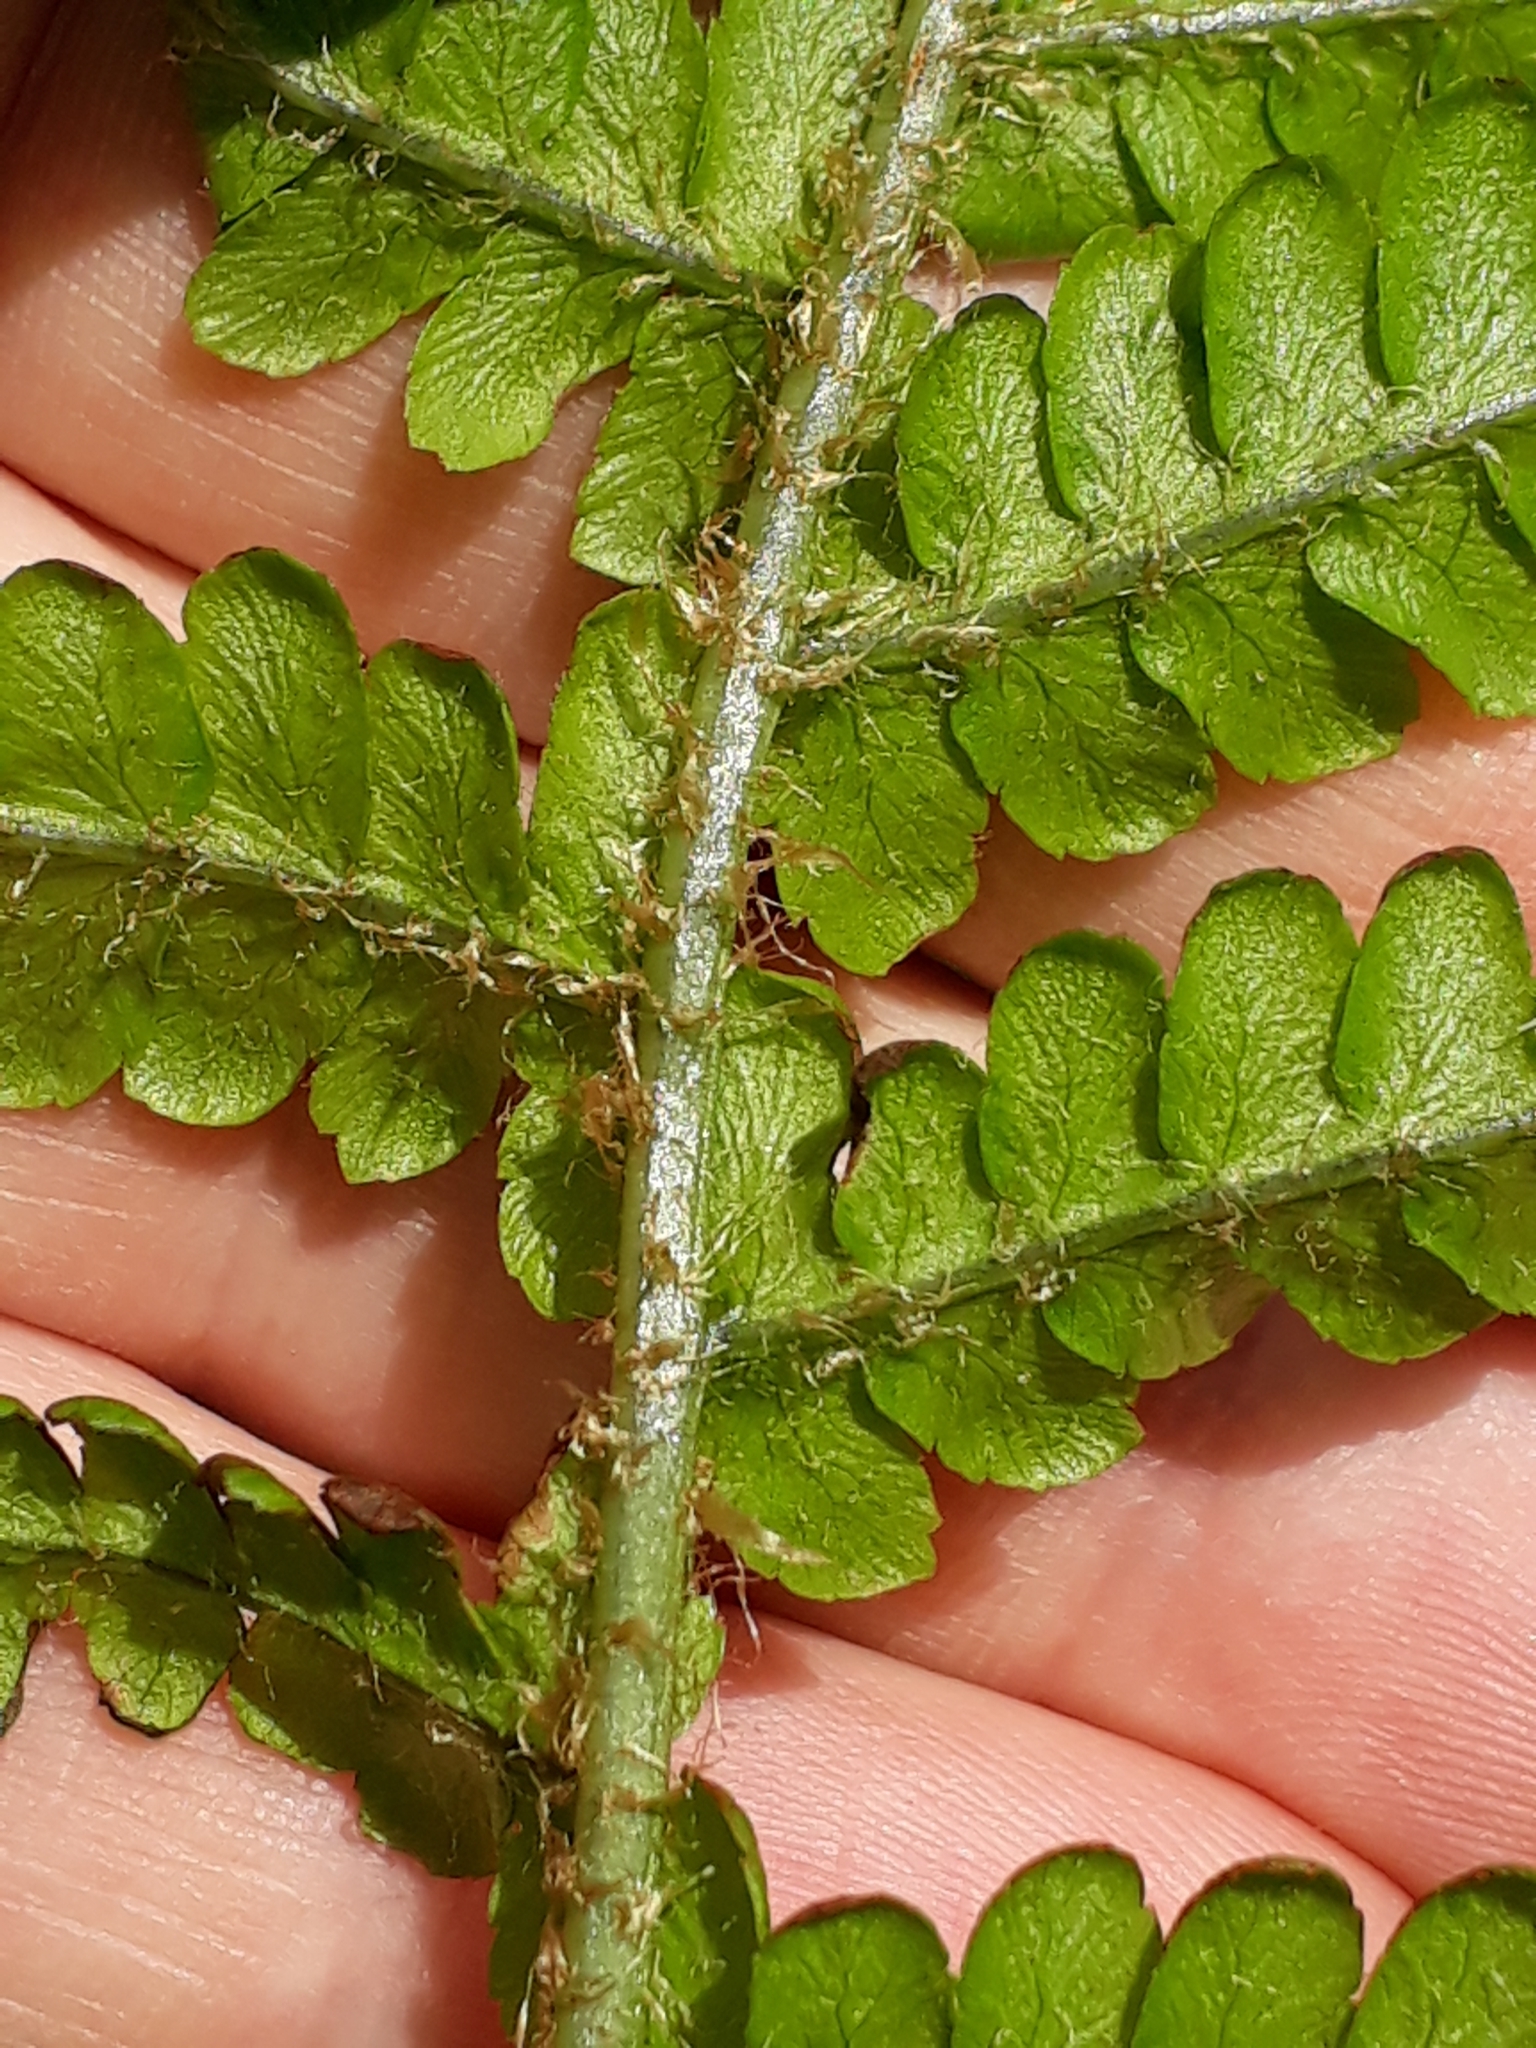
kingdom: Plantae
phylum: Tracheophyta
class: Polypodiopsida
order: Polypodiales
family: Dryopteridaceae
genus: Dryopteris
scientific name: Dryopteris filix-mas
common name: Male fern
